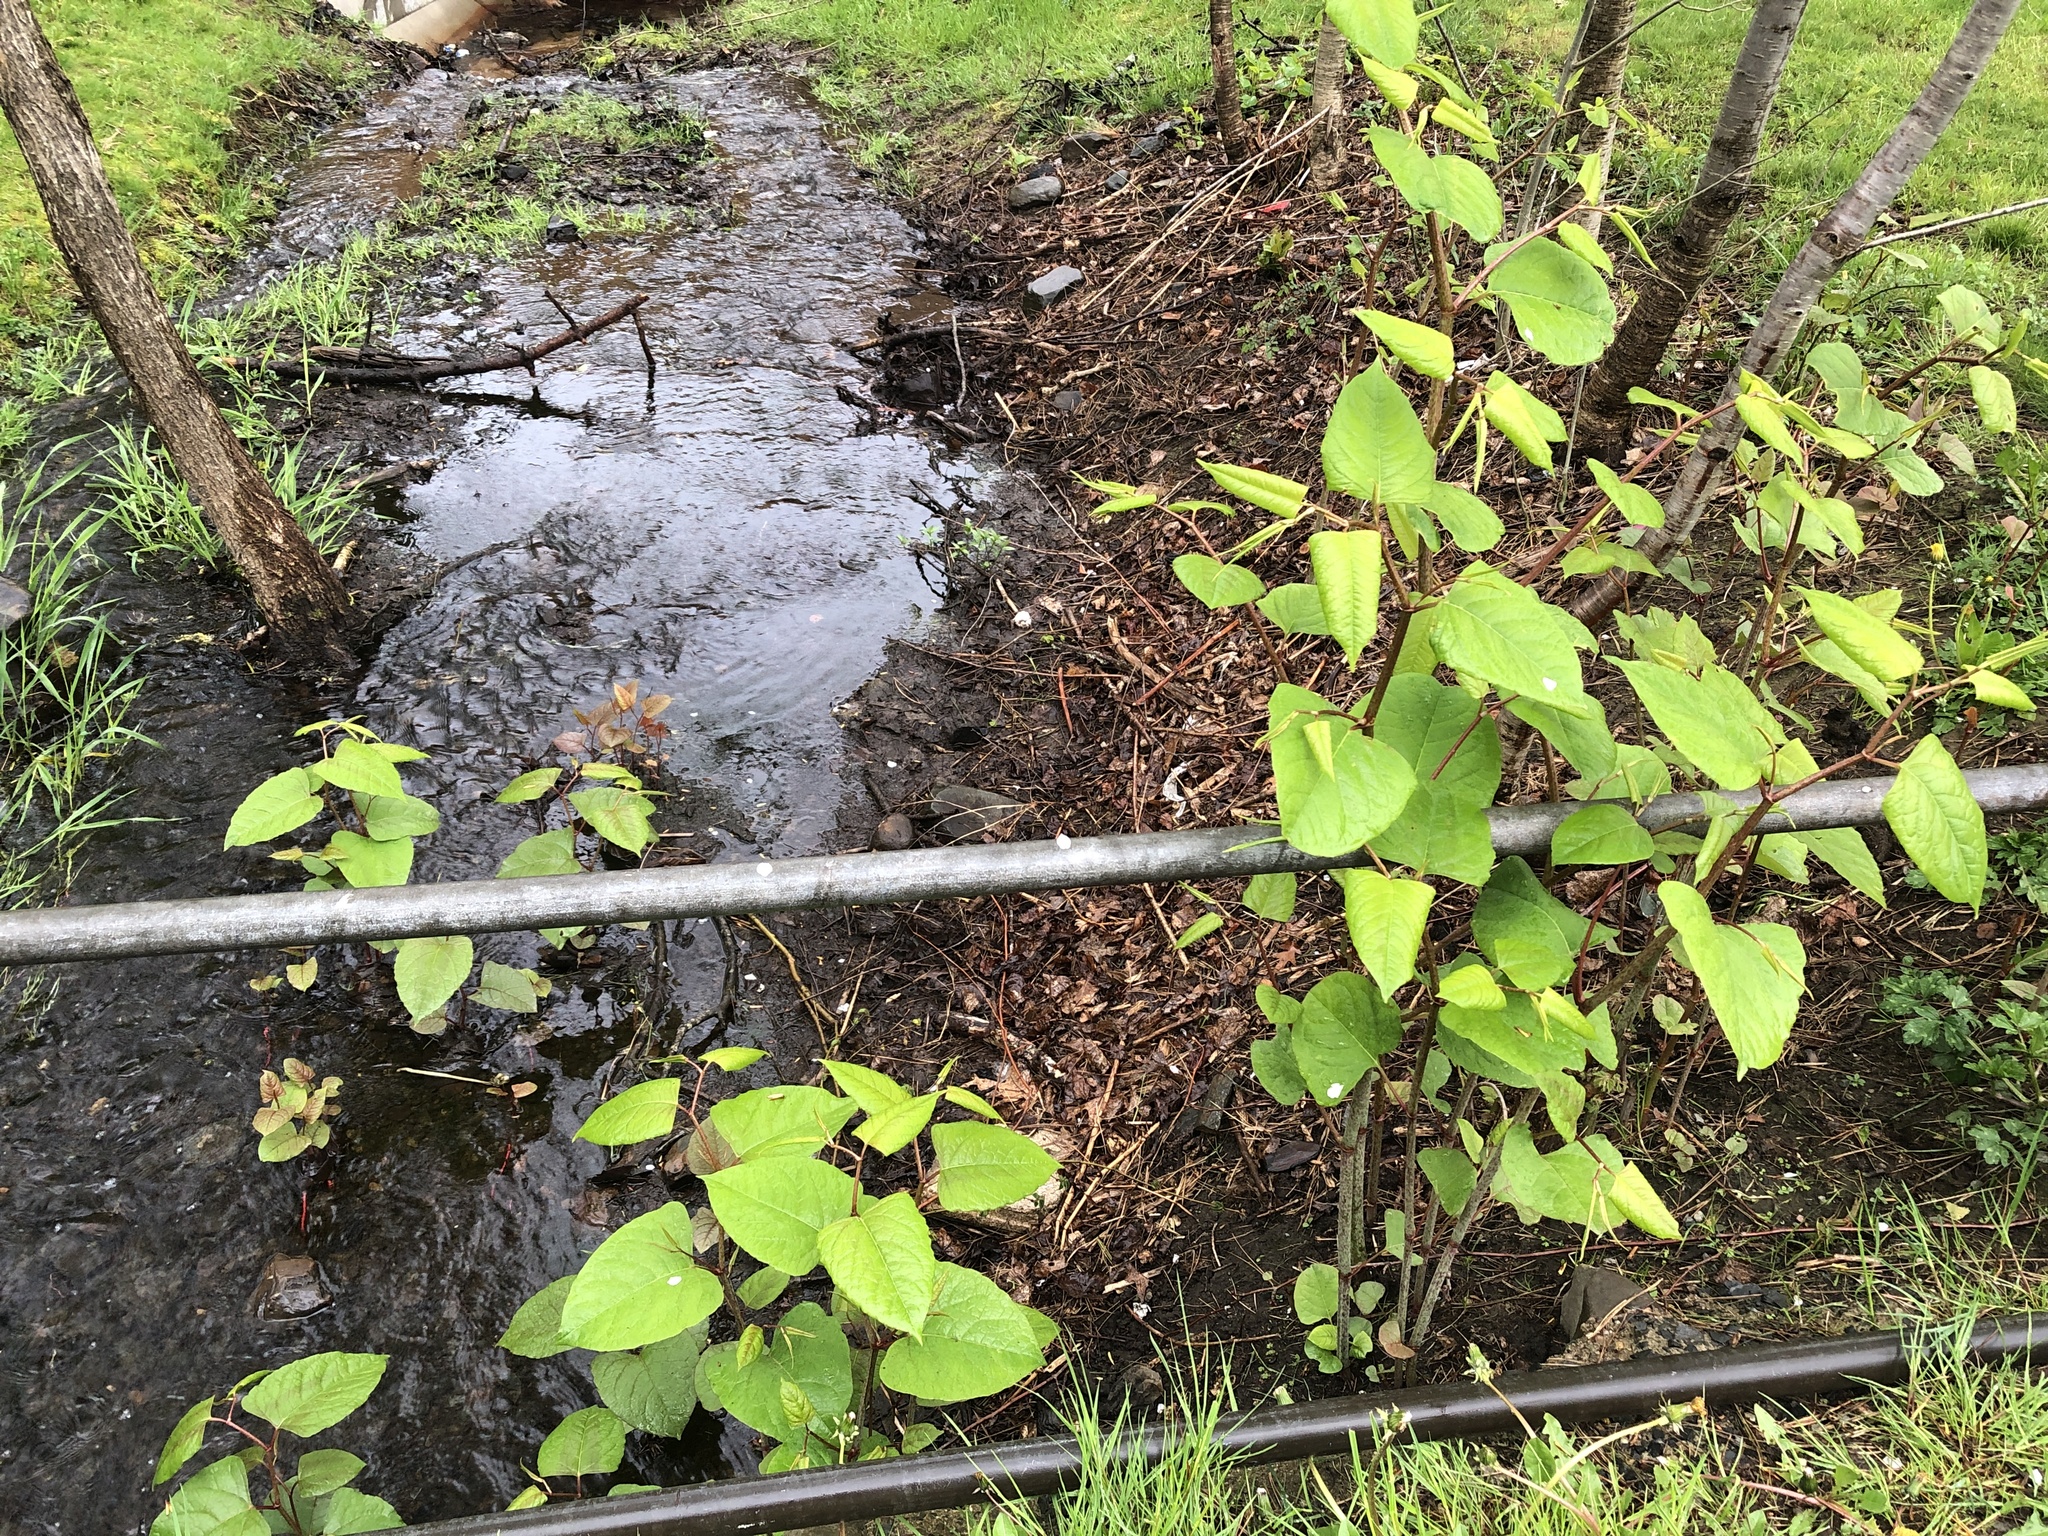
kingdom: Plantae
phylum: Tracheophyta
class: Magnoliopsida
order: Caryophyllales
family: Polygonaceae
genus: Reynoutria
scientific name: Reynoutria japonica
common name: Japanese knotweed
